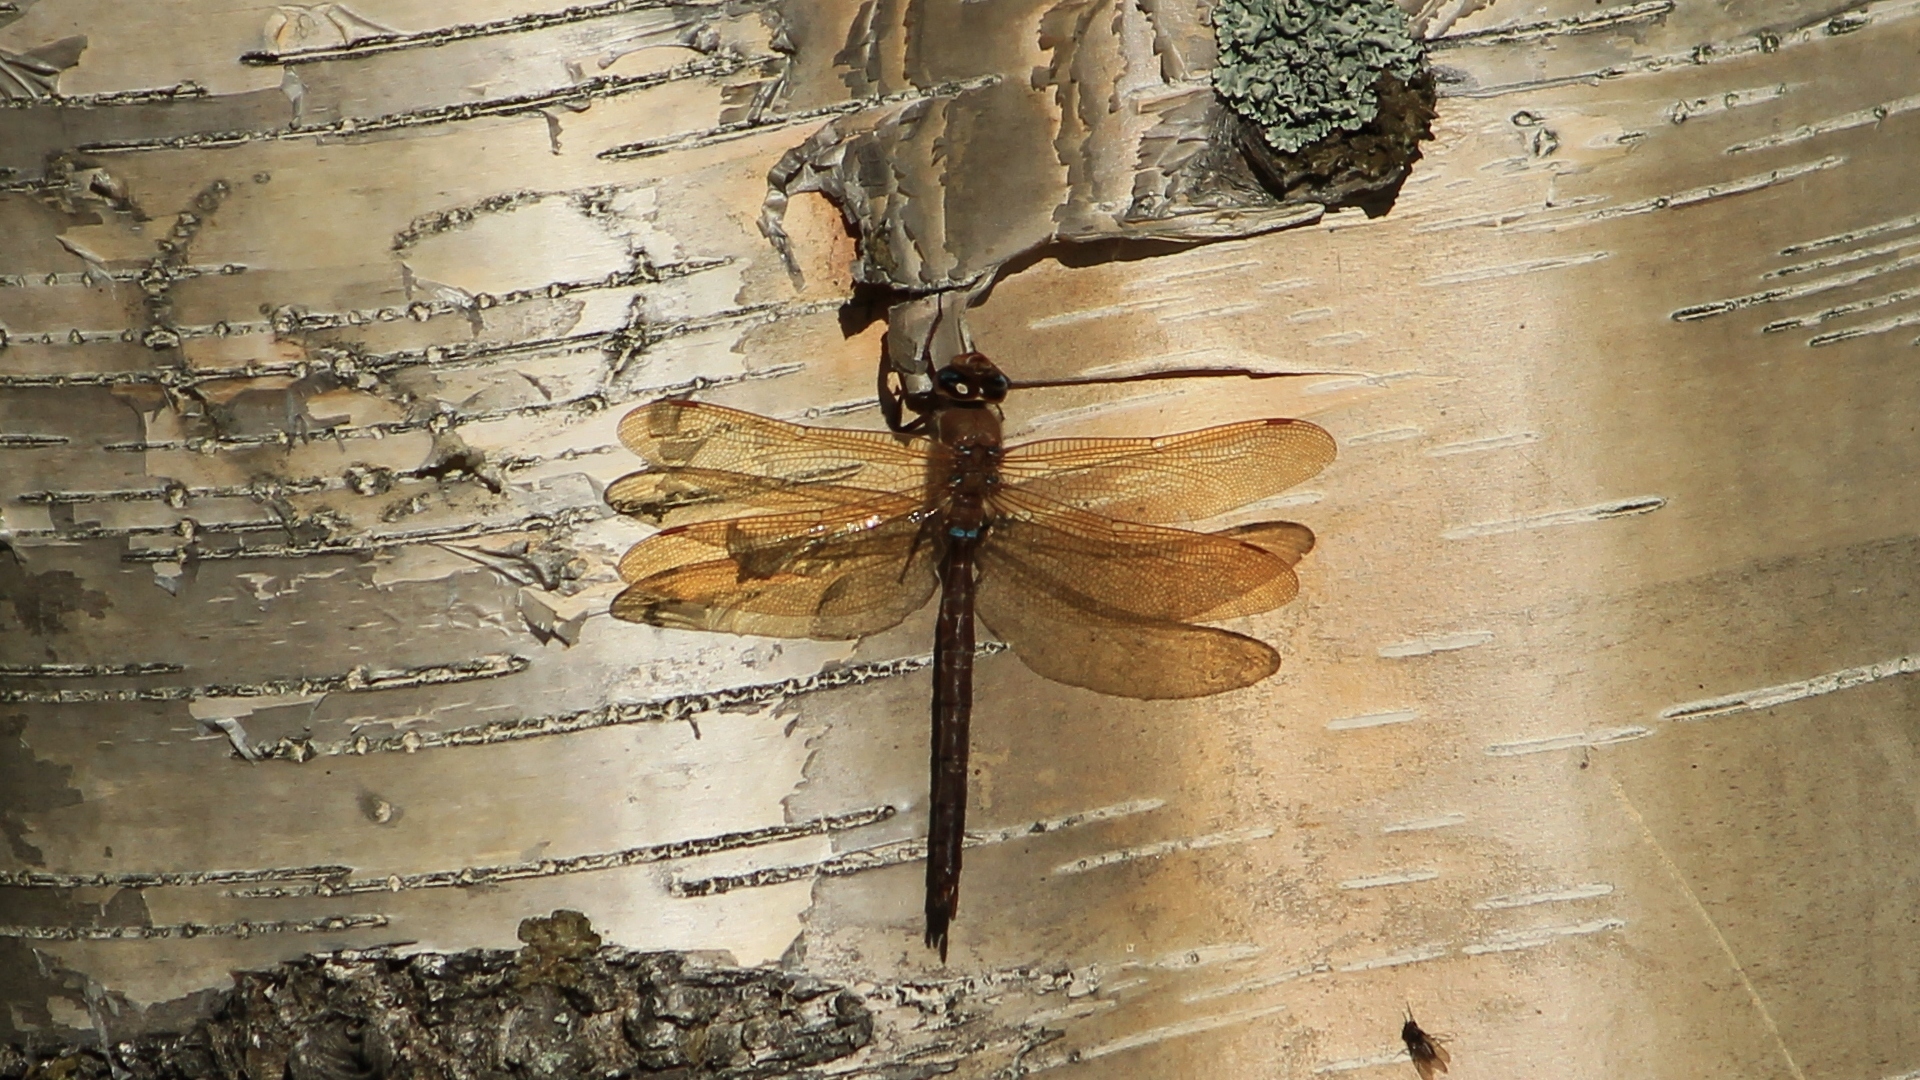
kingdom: Animalia
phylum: Arthropoda
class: Insecta
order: Odonata
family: Aeshnidae
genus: Aeshna
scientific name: Aeshna grandis
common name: Brown hawker
